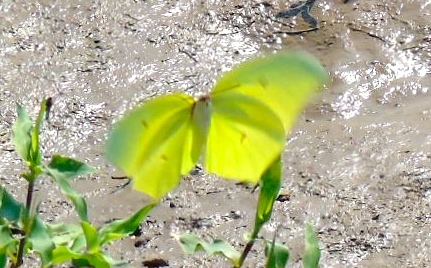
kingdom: Animalia
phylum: Arthropoda
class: Insecta
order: Lepidoptera
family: Pieridae
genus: Anteos
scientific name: Anteos maerula
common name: Angled sulphur
